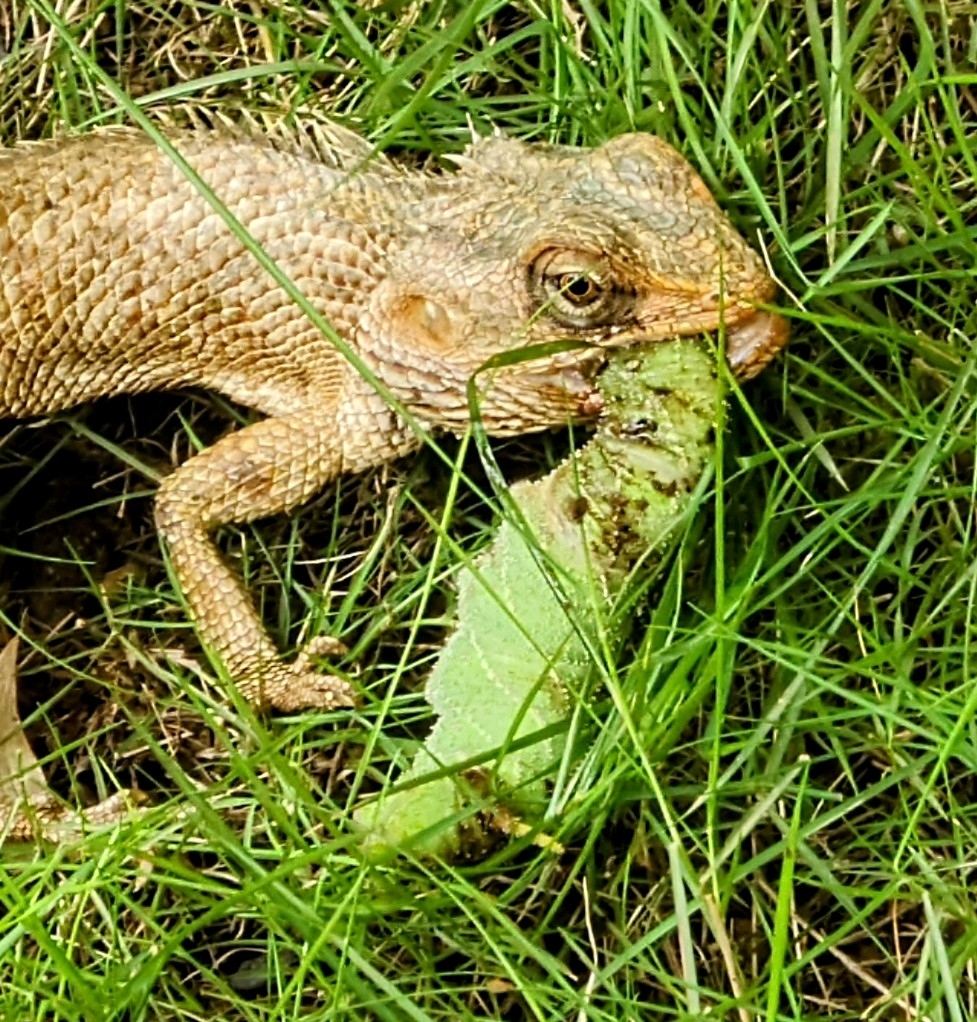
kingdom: Animalia
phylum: Chordata
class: Squamata
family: Agamidae
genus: Calotes
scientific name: Calotes versicolor
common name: Oriental garden lizard
